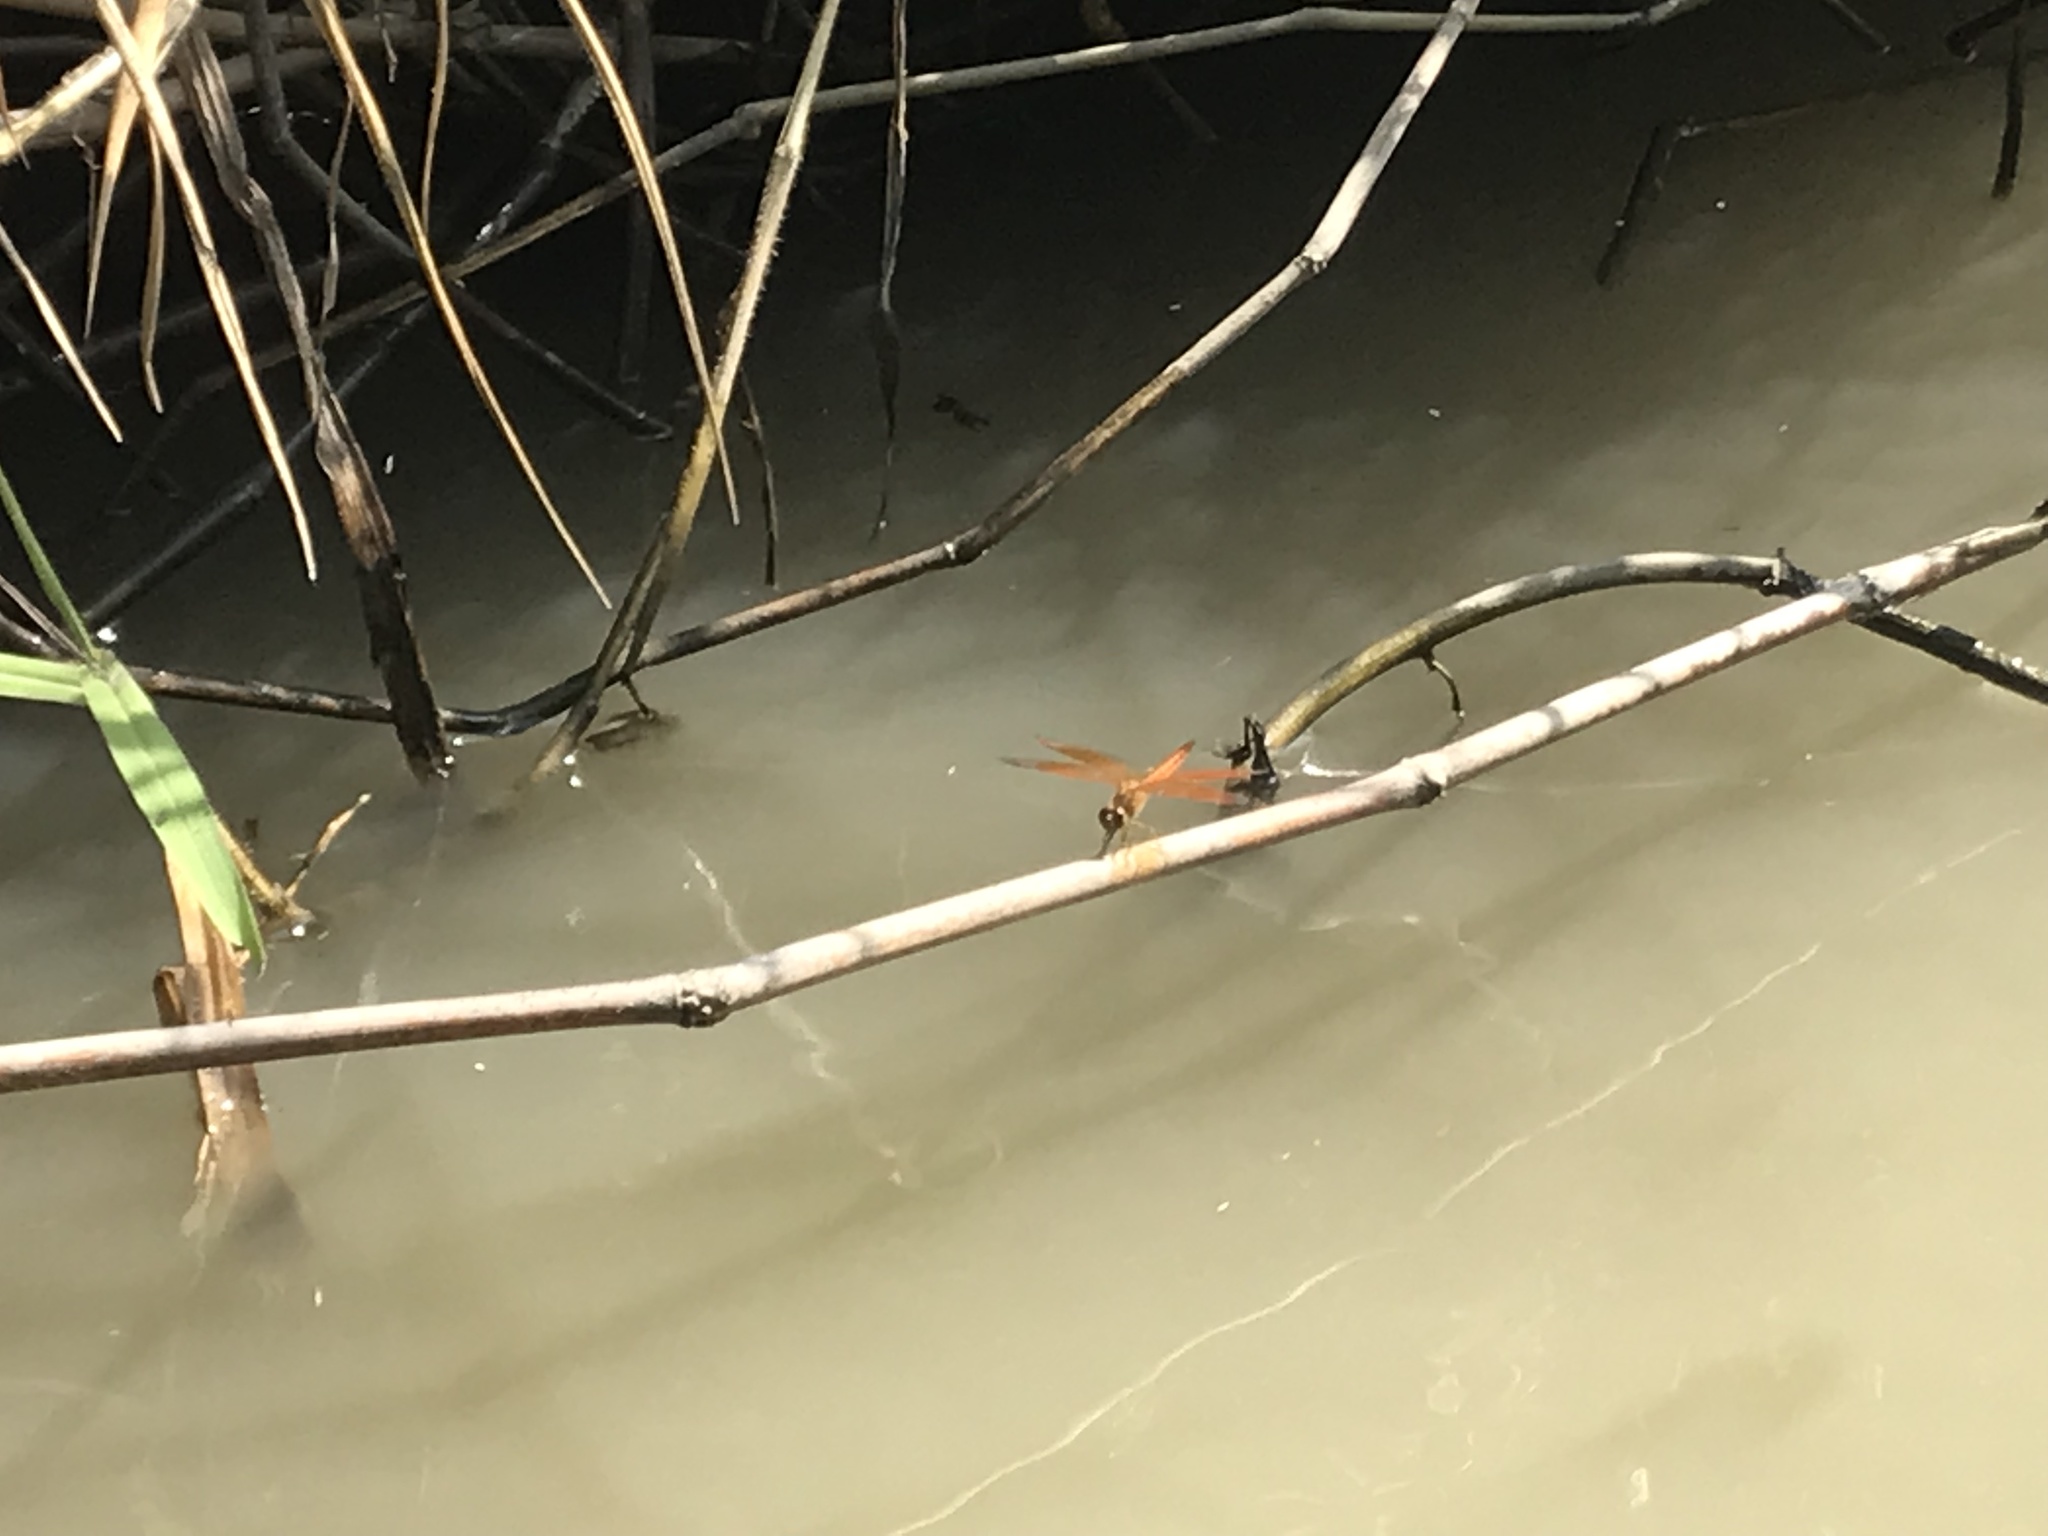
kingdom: Animalia
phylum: Arthropoda
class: Insecta
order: Odonata
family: Libellulidae
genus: Brachythemis
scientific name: Brachythemis contaminata
